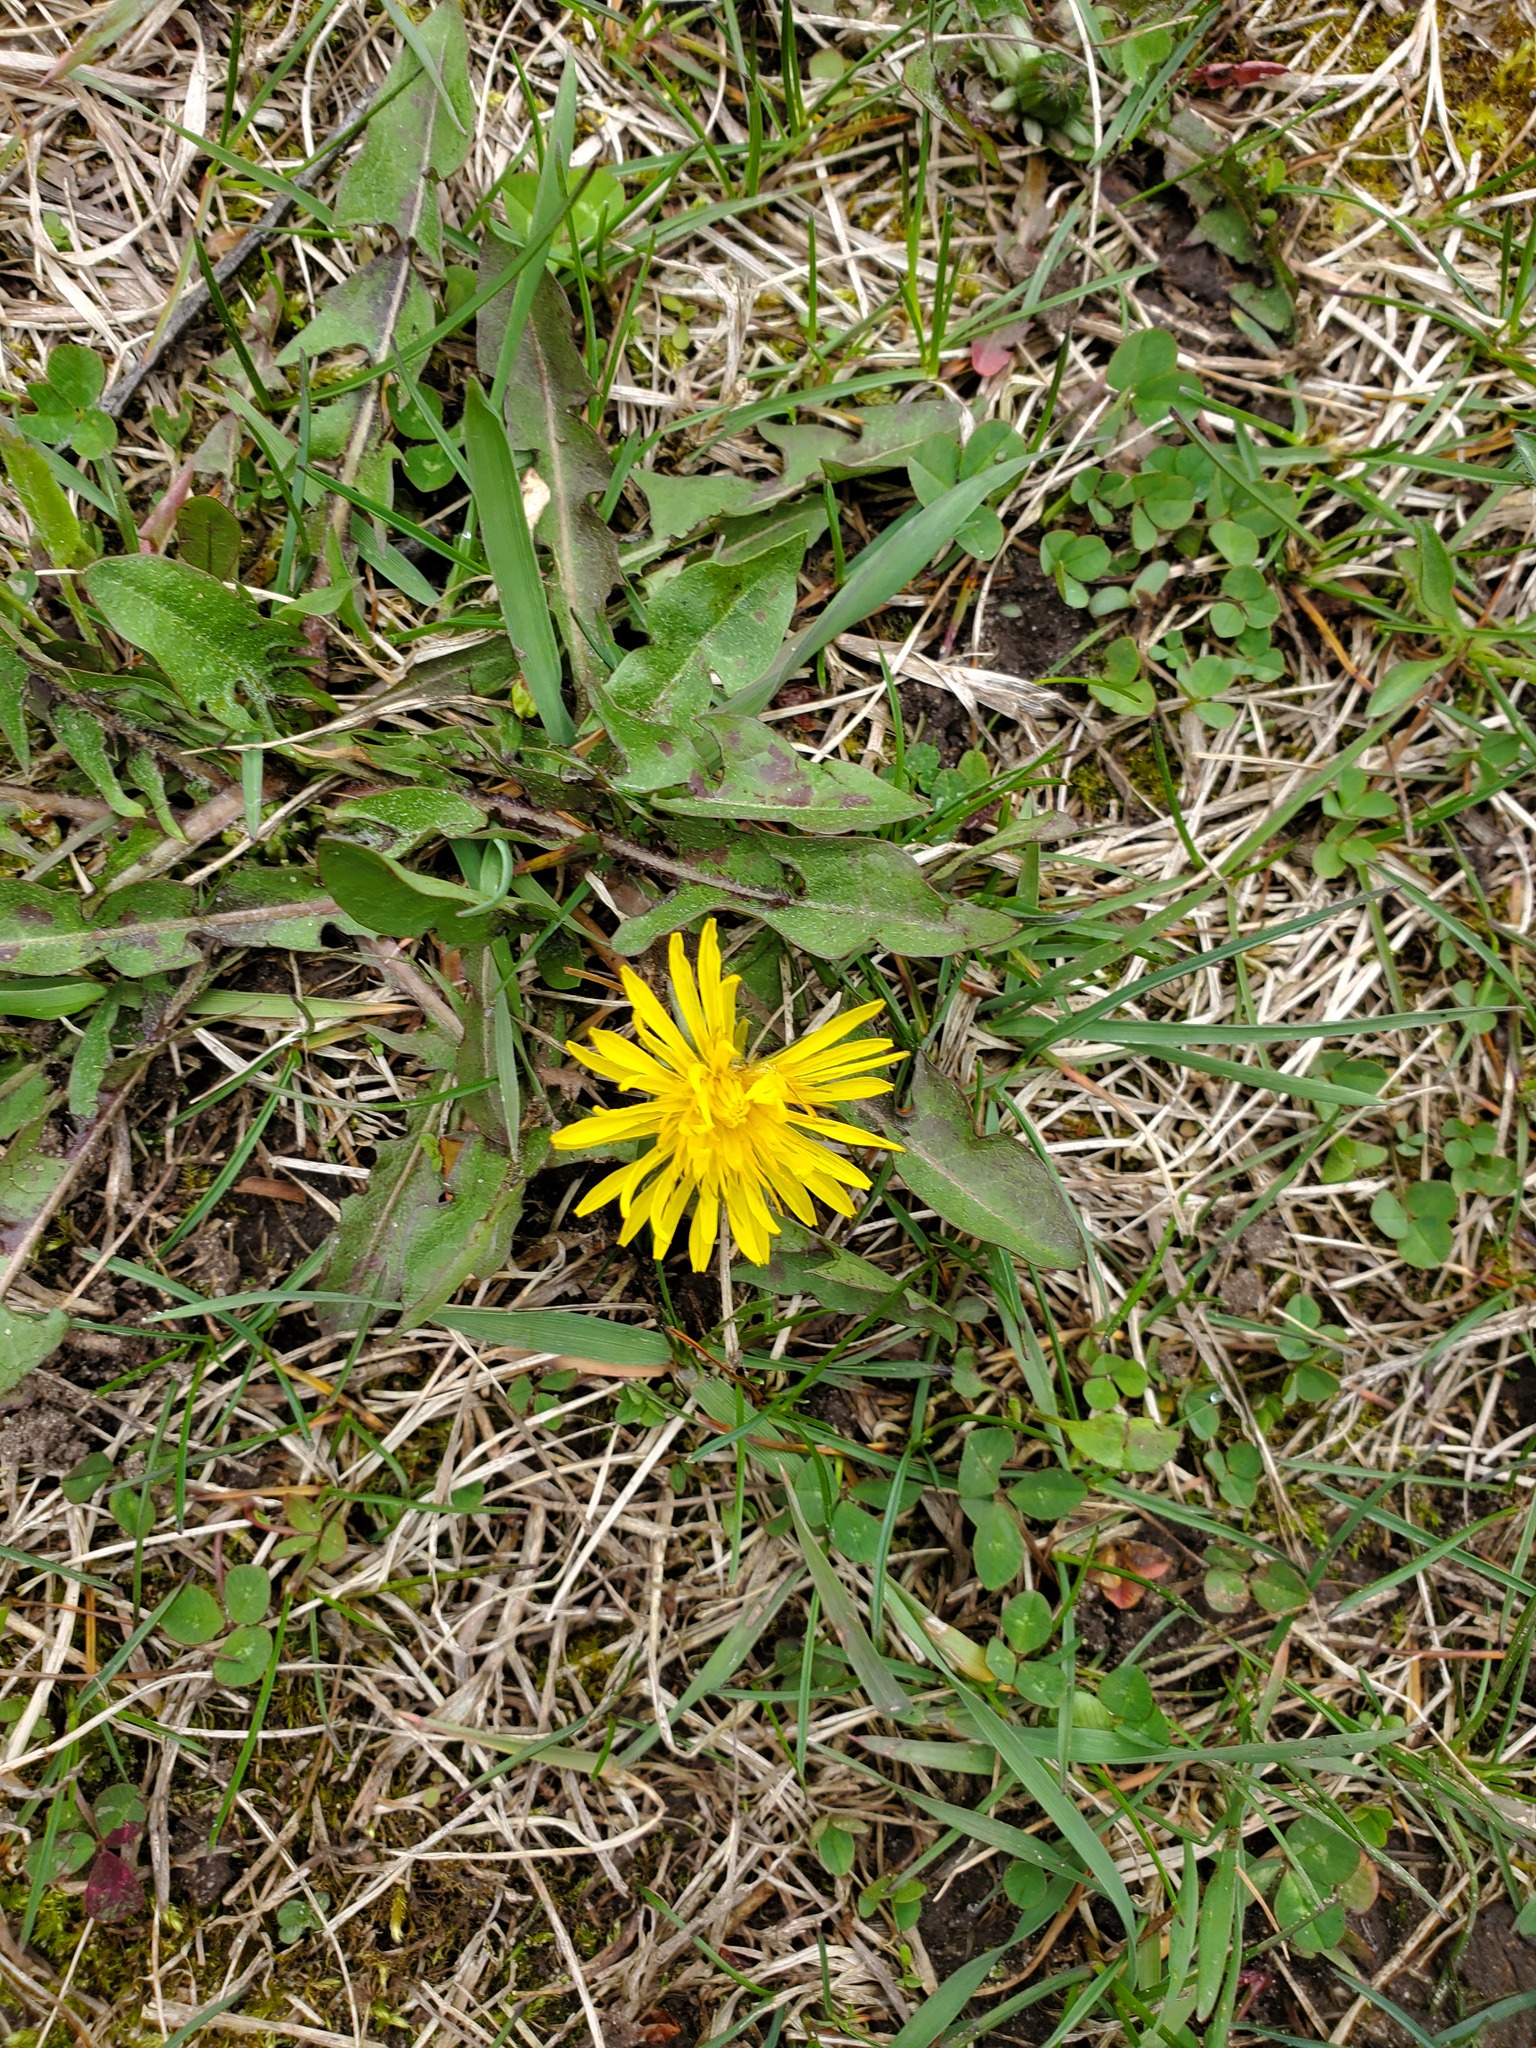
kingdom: Plantae
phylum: Tracheophyta
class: Magnoliopsida
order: Asterales
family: Asteraceae
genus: Taraxacum
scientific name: Taraxacum officinale
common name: Common dandelion
